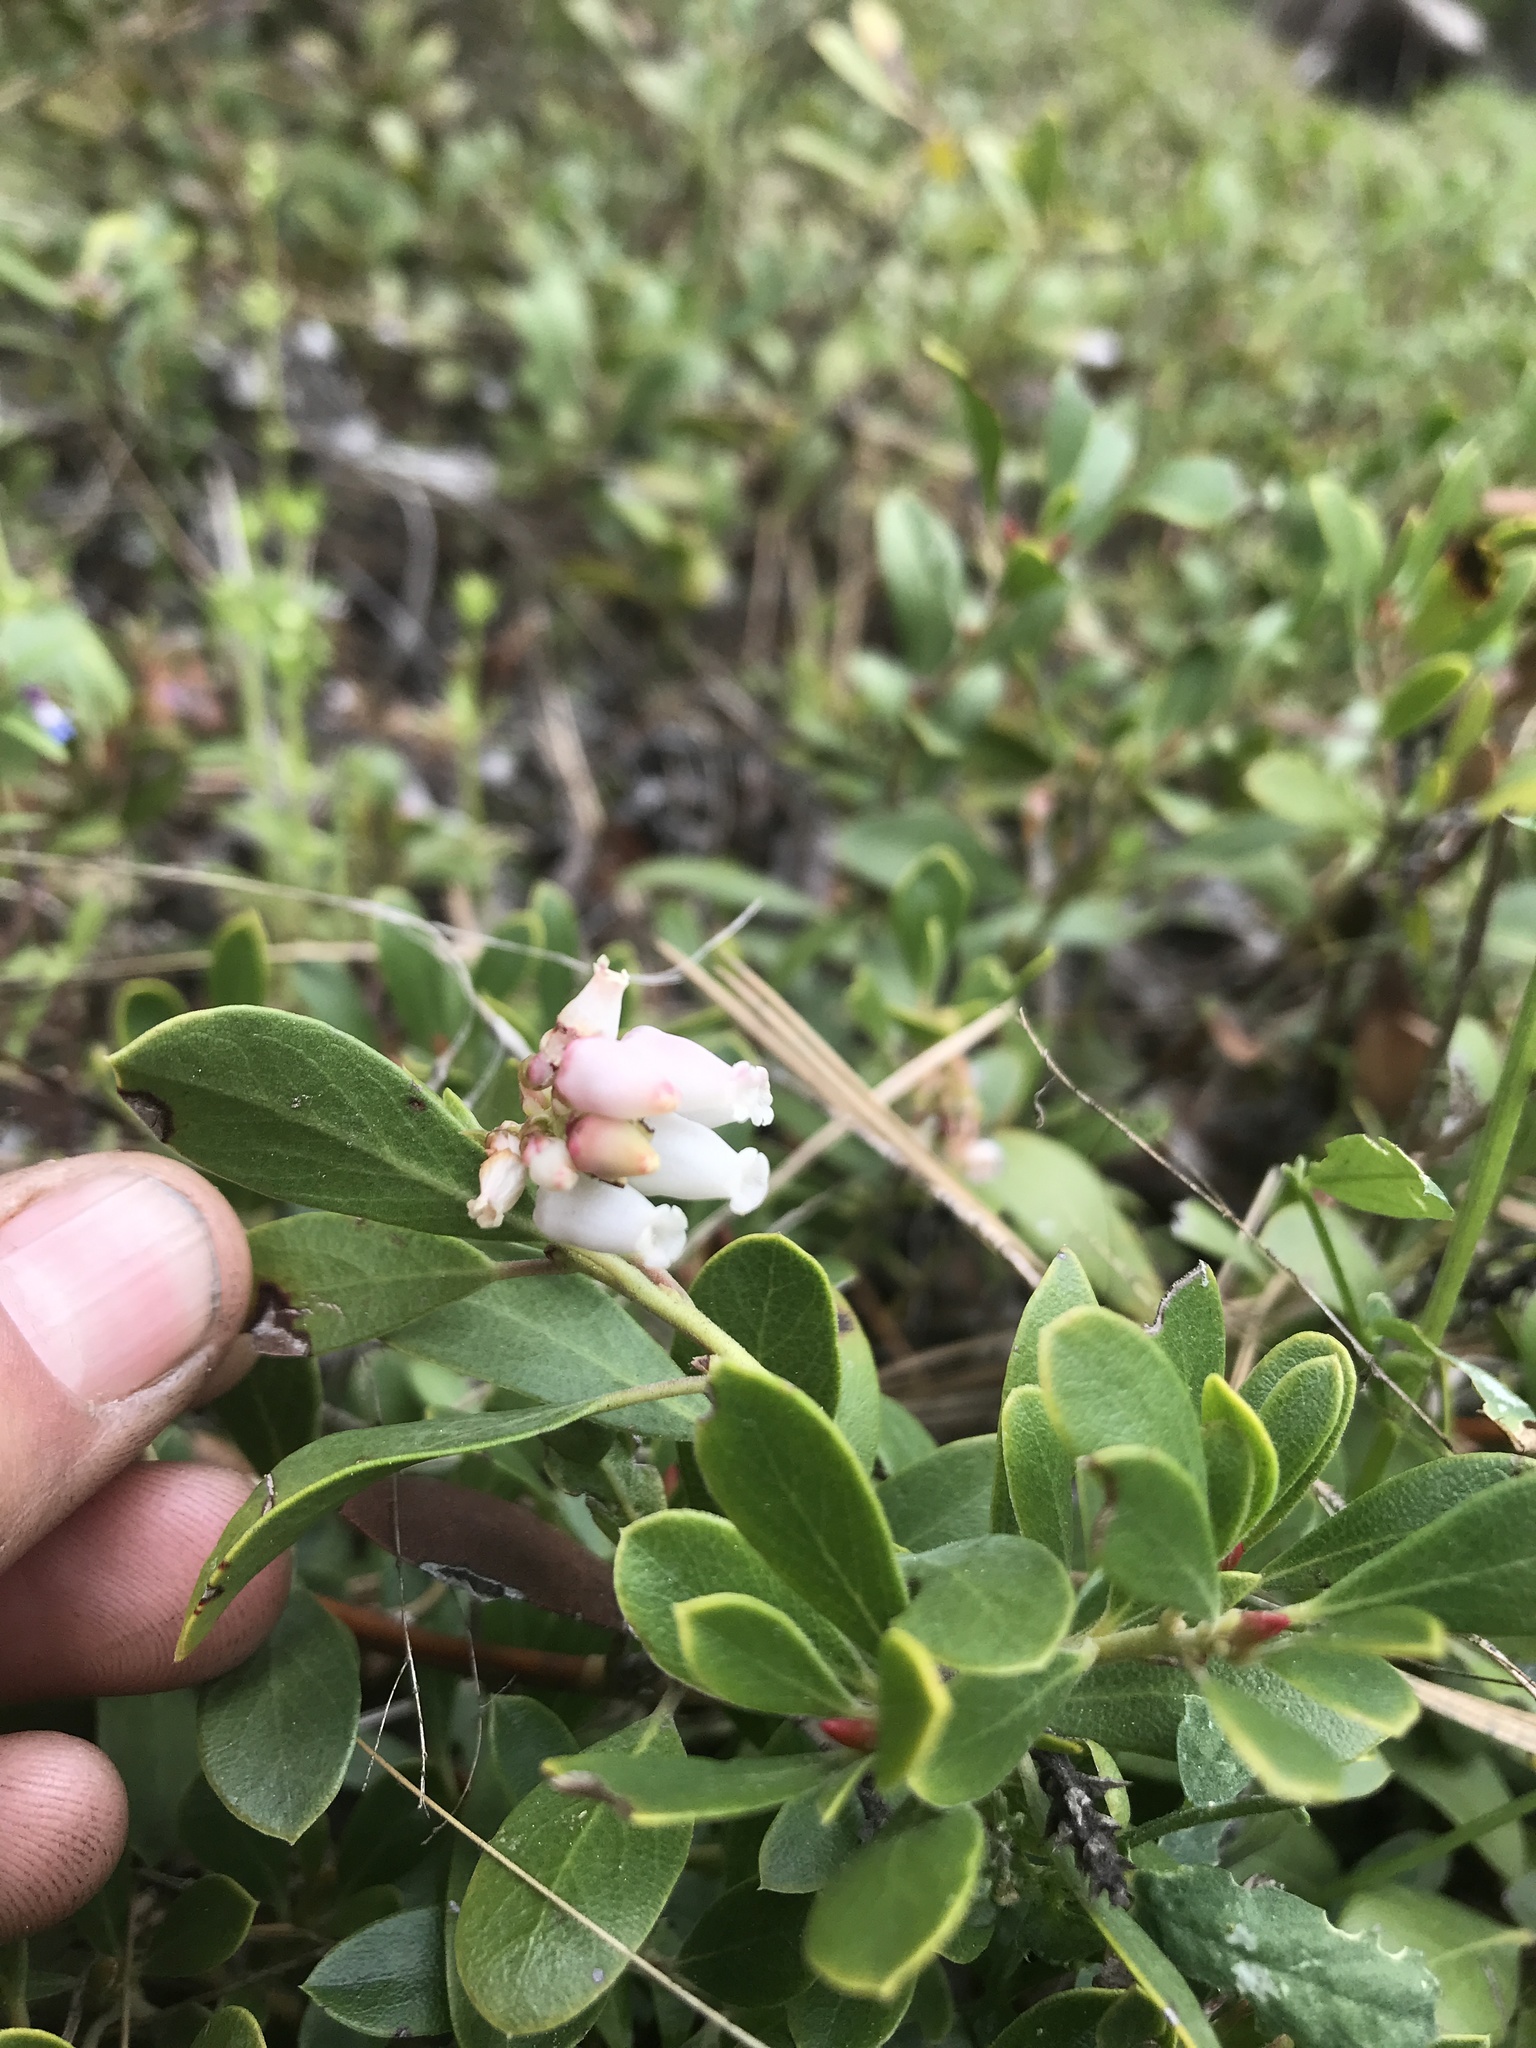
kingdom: Plantae
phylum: Tracheophyta
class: Magnoliopsida
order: Ericales
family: Ericaceae
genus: Arctostaphylos
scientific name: Arctostaphylos nevadensis
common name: Pinemat manzanita
